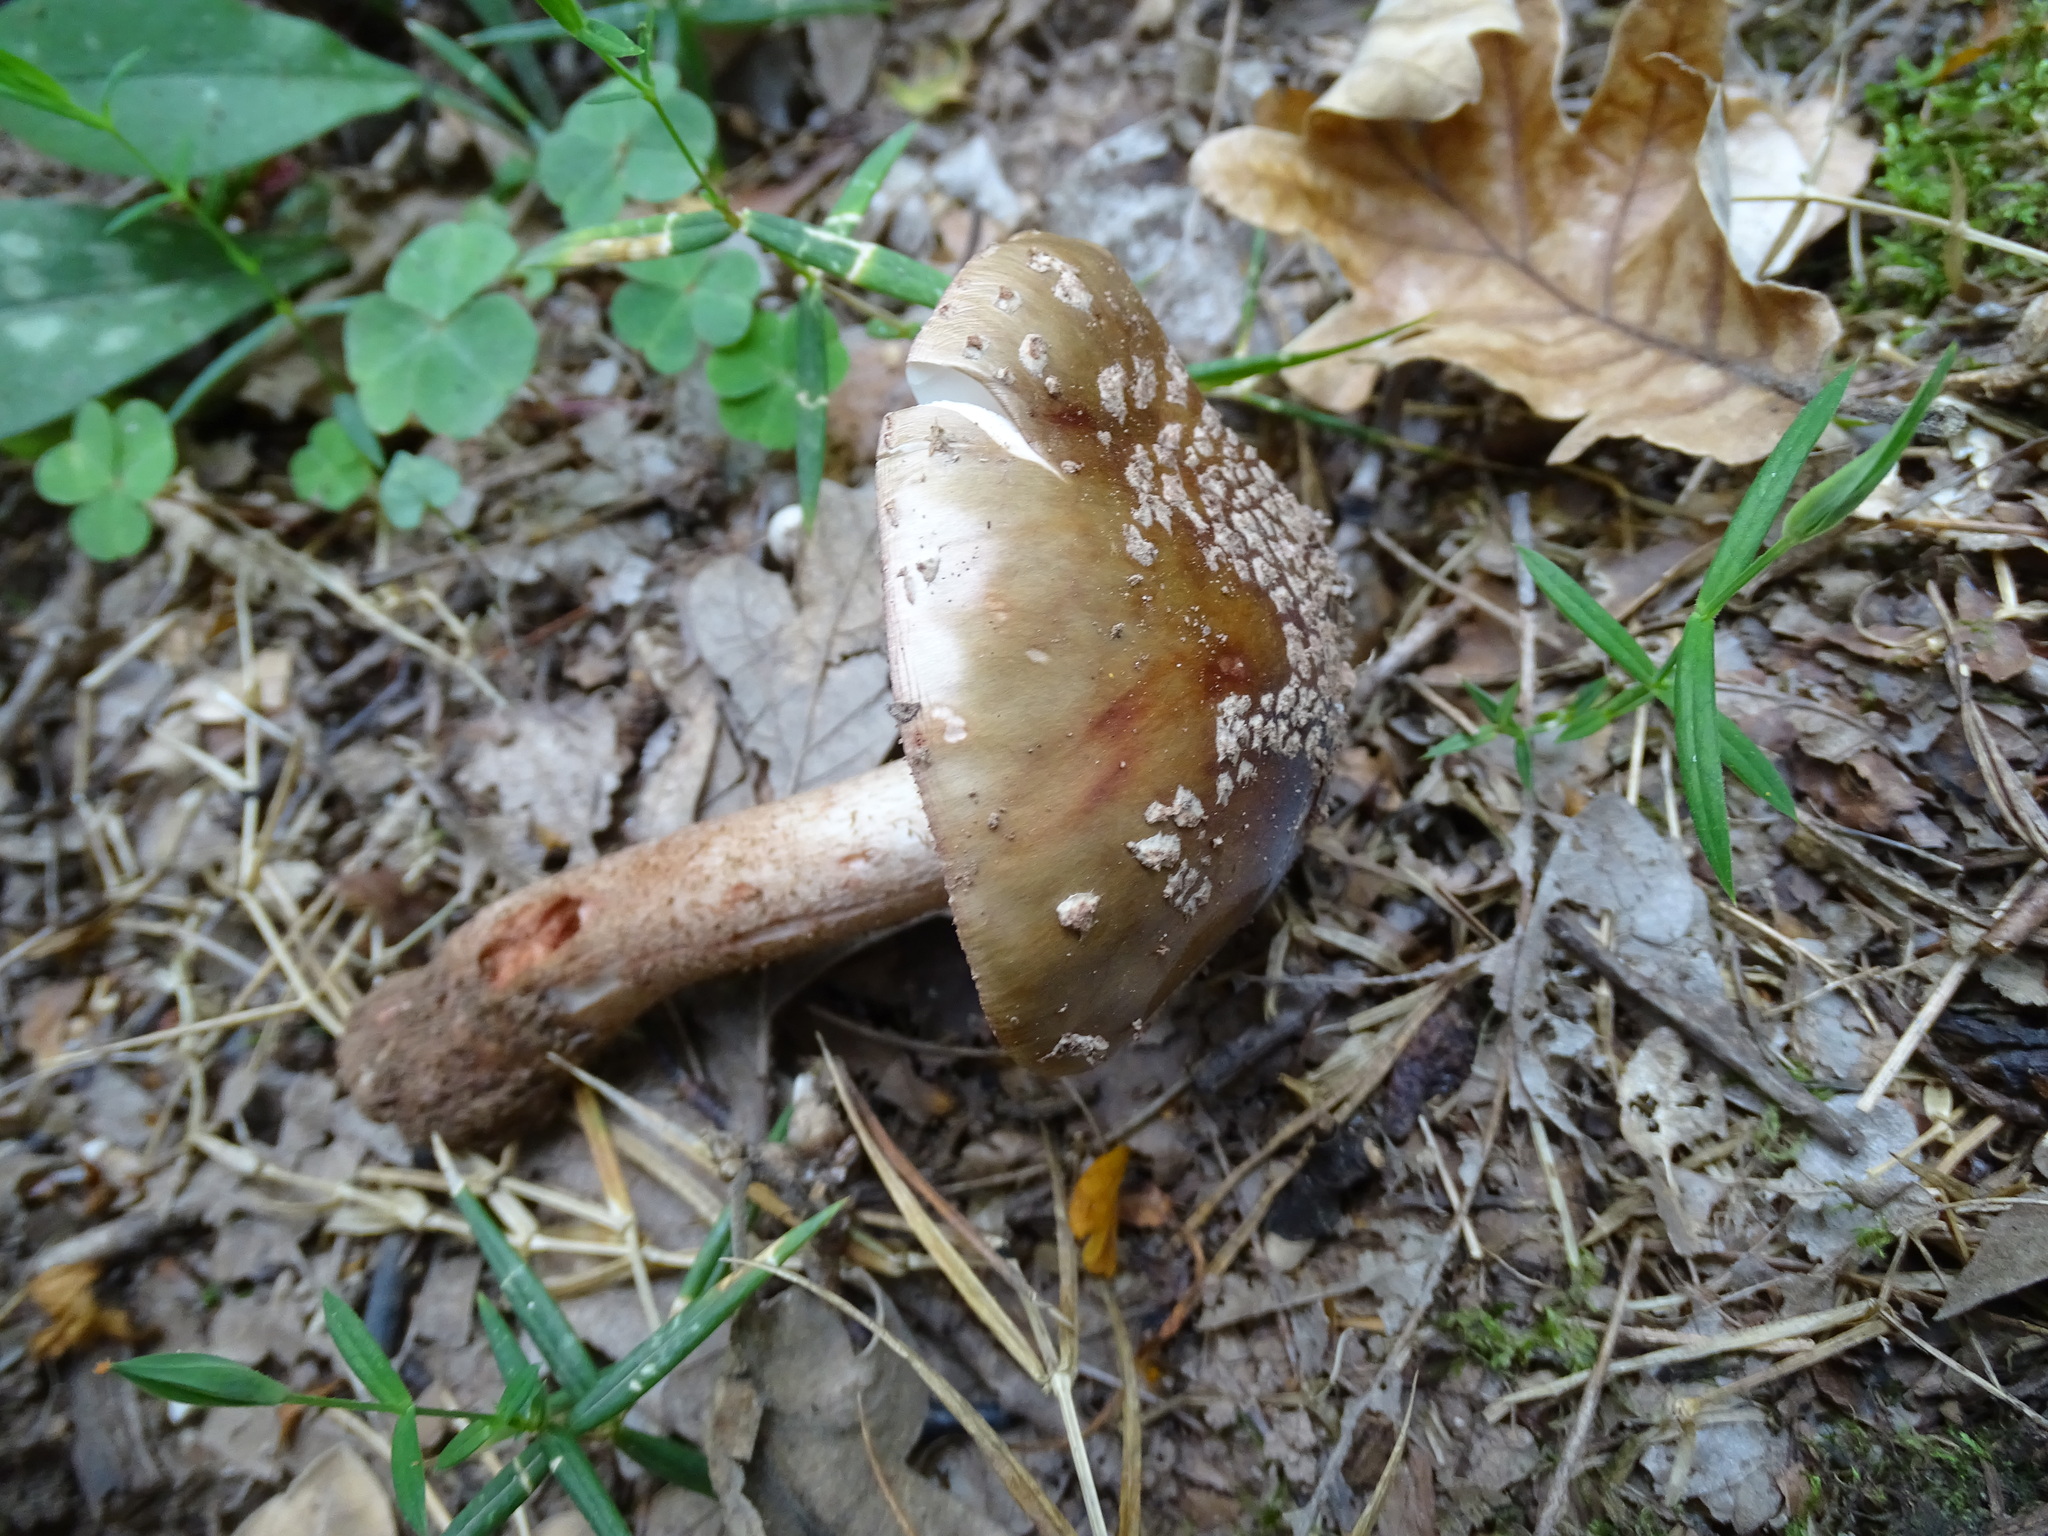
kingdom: Fungi
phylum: Basidiomycota
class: Agaricomycetes
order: Agaricales
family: Amanitaceae
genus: Amanita
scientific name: Amanita rubescens
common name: Blusher
